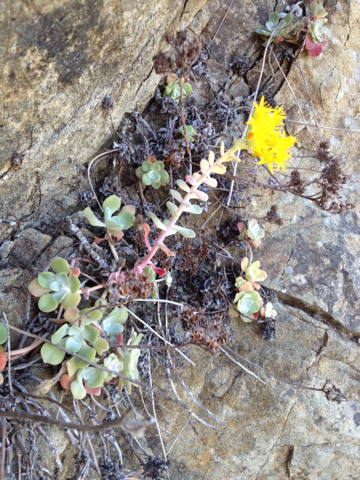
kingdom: Plantae
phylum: Tracheophyta
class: Magnoliopsida
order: Saxifragales
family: Crassulaceae
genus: Sedum
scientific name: Sedum spathulifolium
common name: Colorado stonecrop
